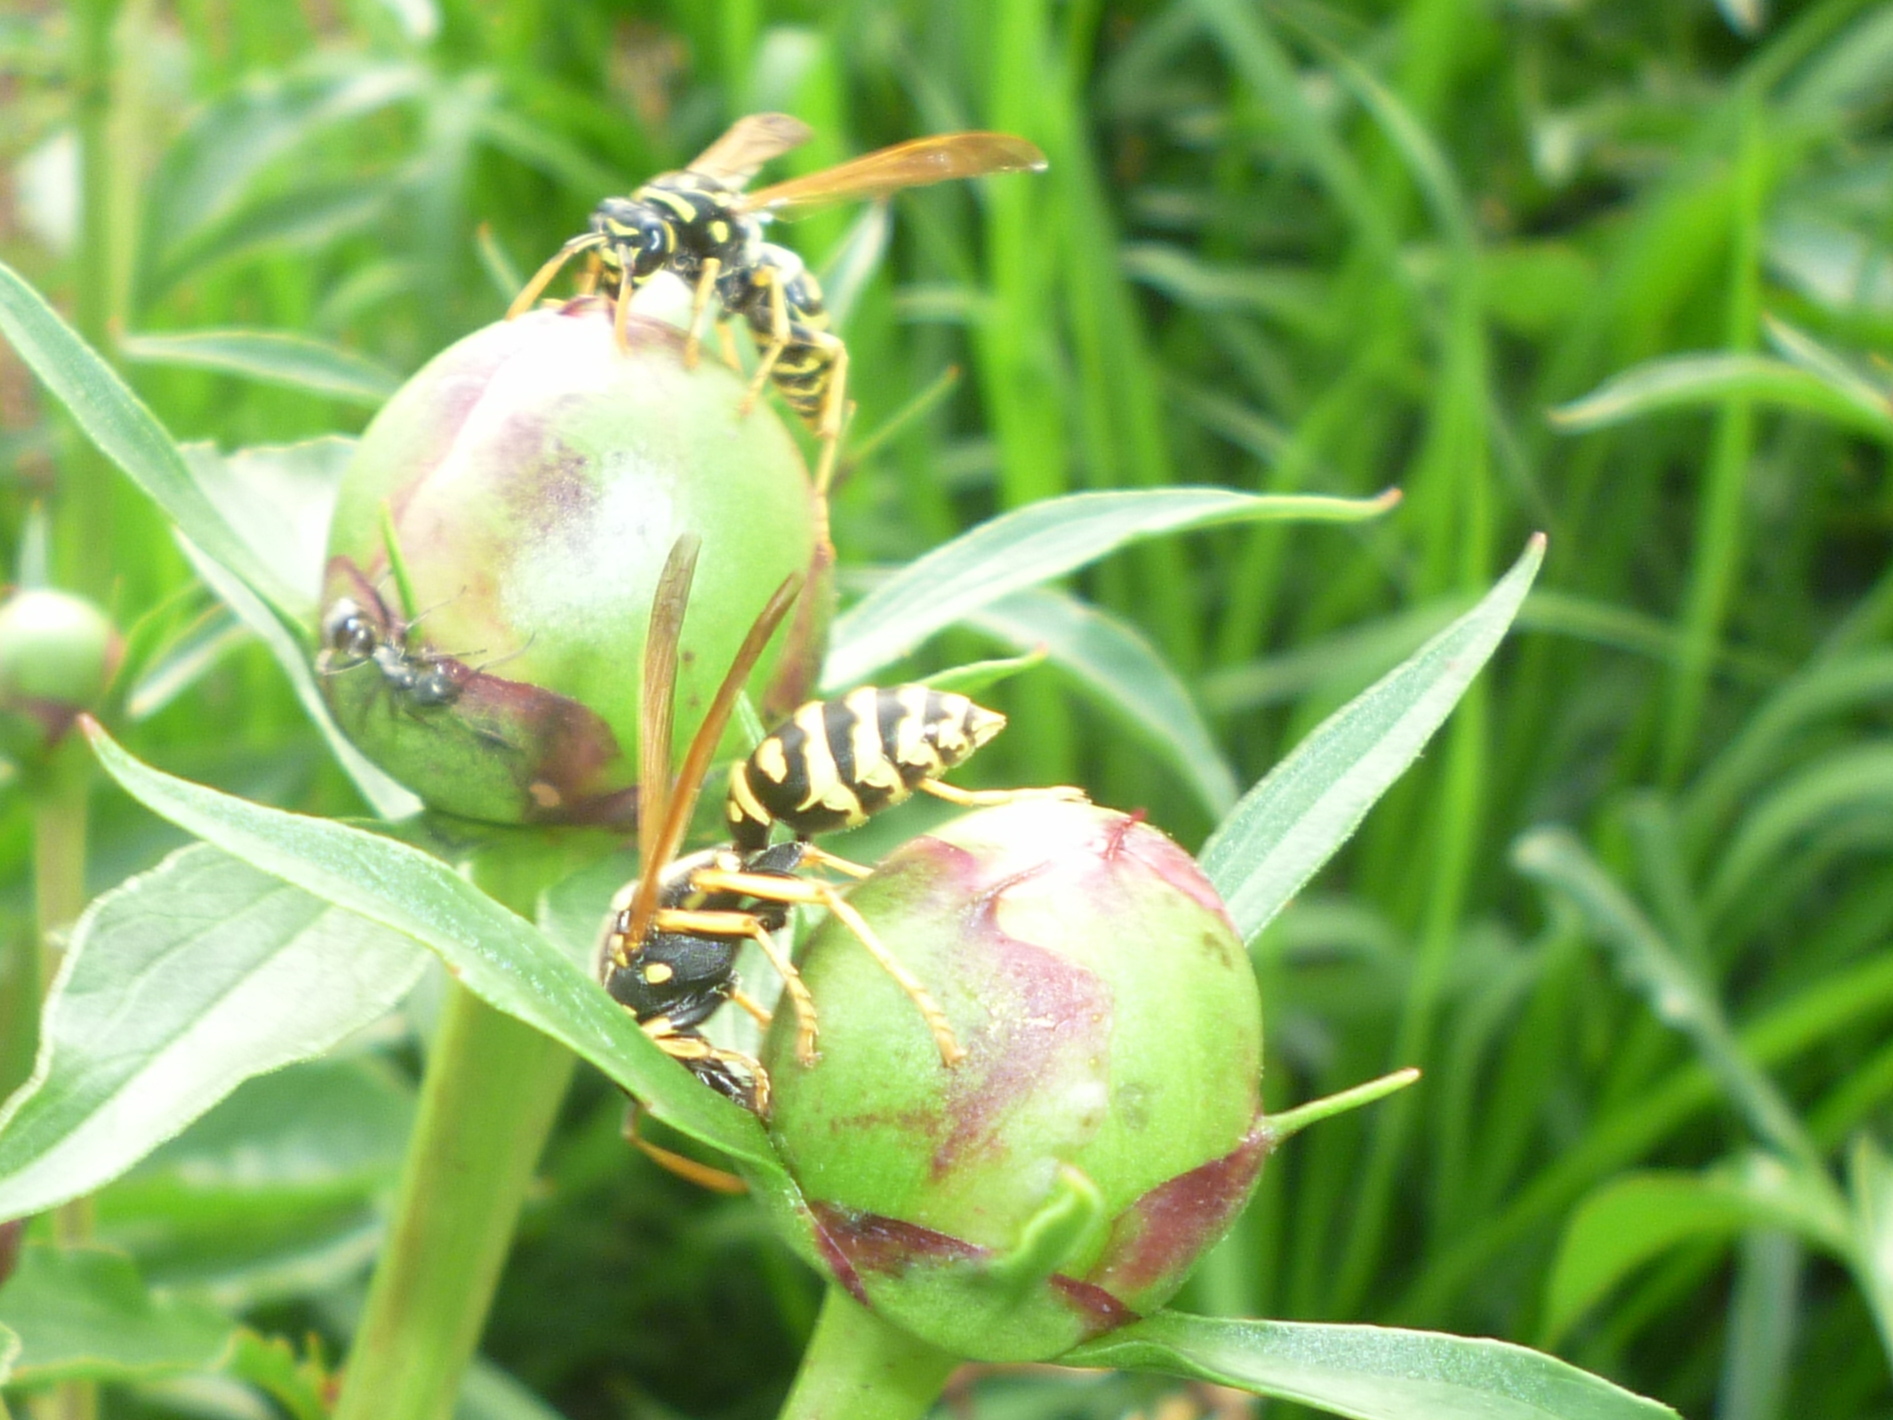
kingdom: Animalia
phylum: Arthropoda
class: Insecta
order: Hymenoptera
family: Eumenidae
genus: Polistes
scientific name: Polistes dominula
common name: Paper wasp
